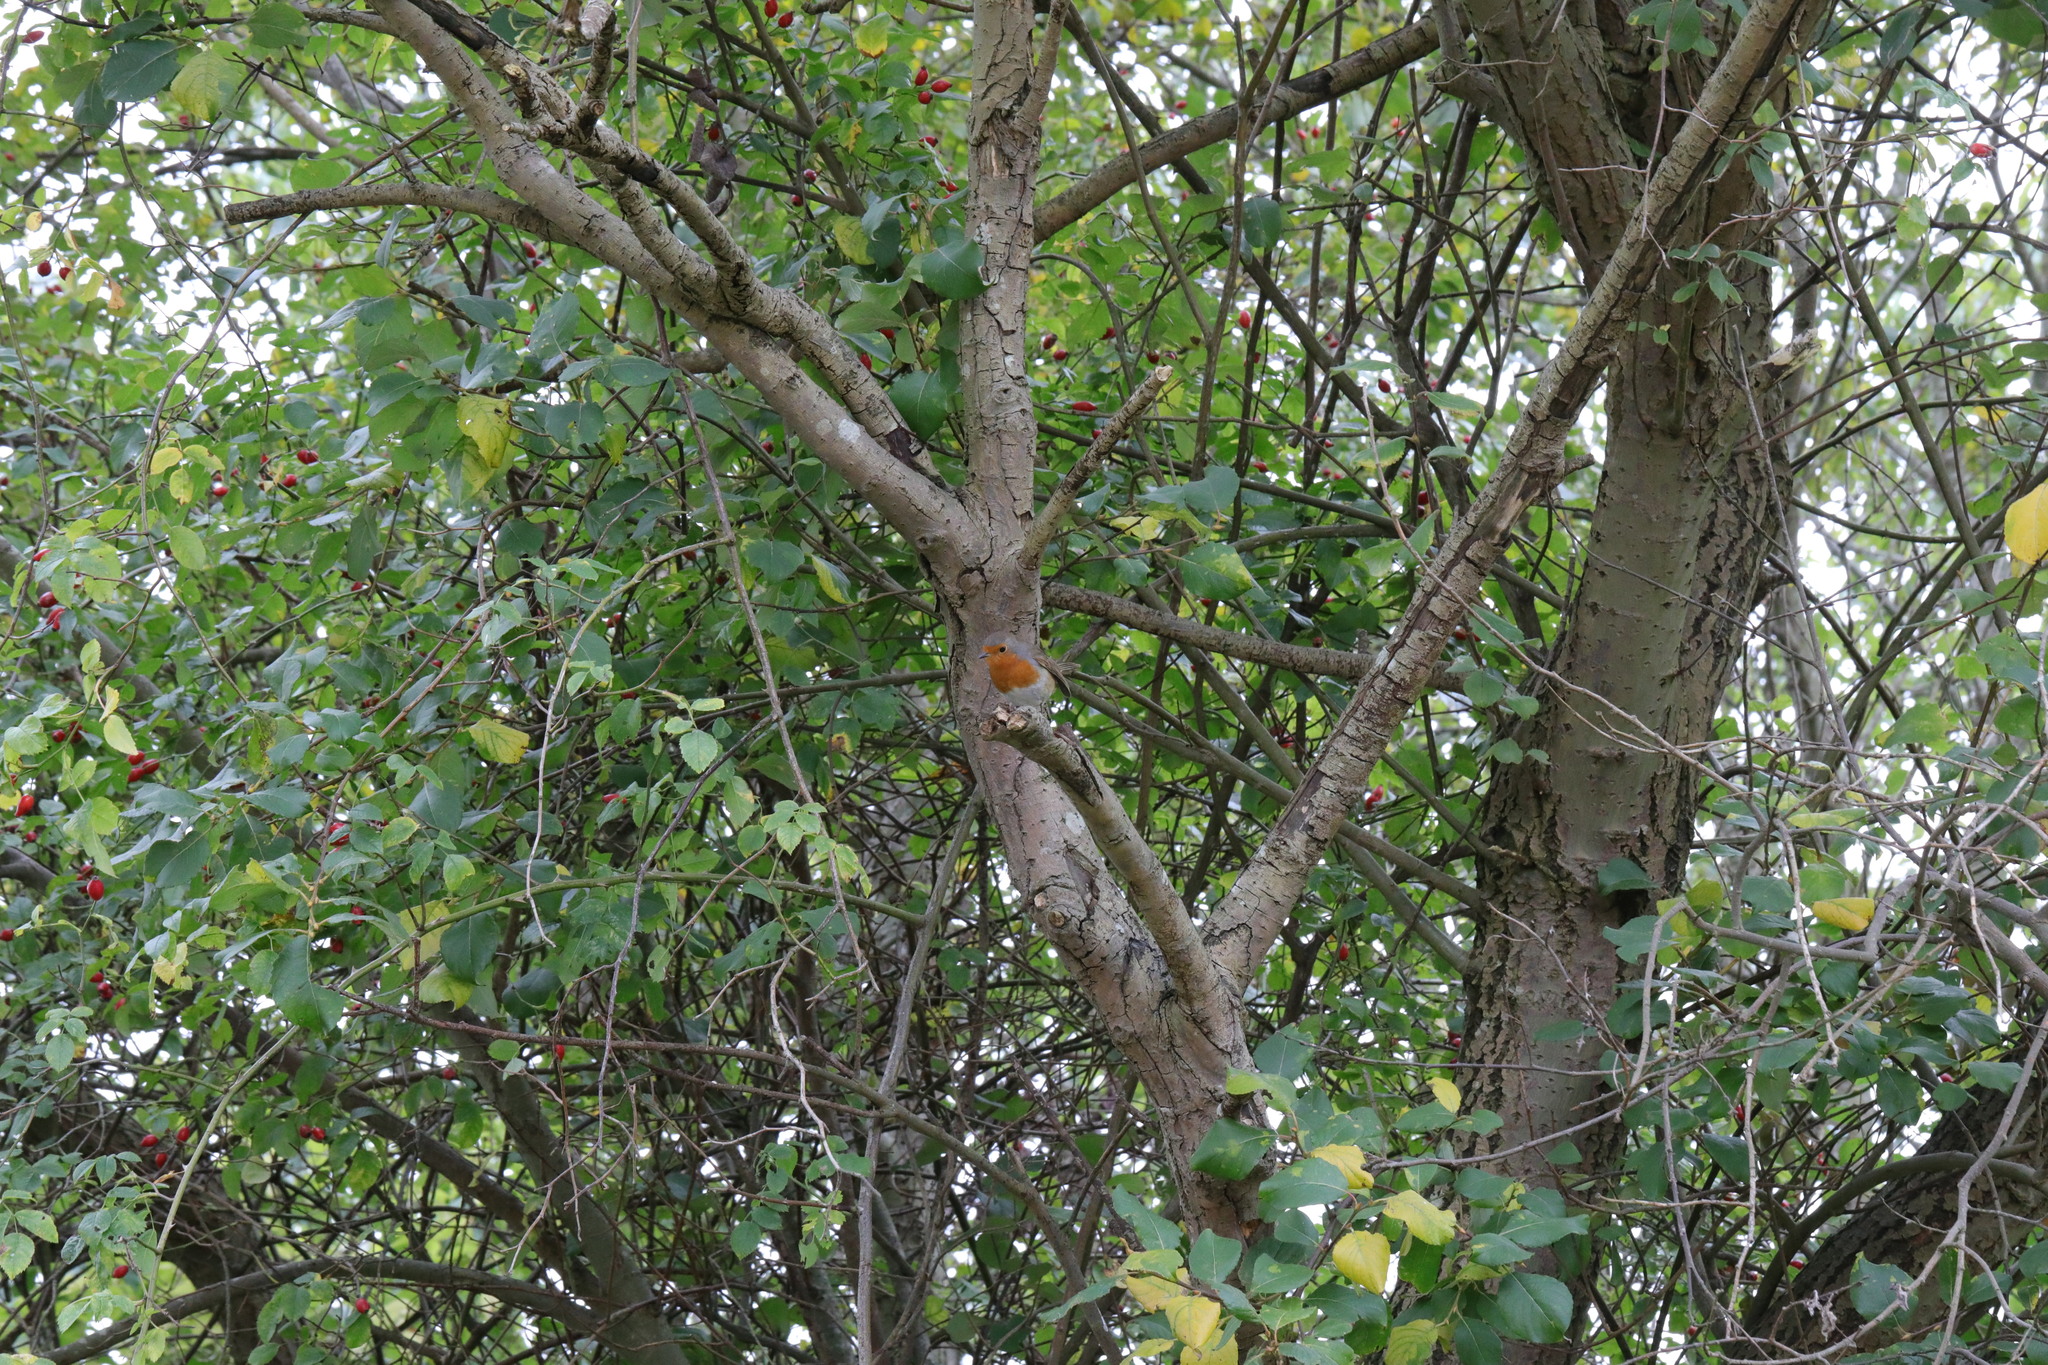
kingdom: Animalia
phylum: Chordata
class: Aves
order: Passeriformes
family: Muscicapidae
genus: Erithacus
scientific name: Erithacus rubecula
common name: European robin
